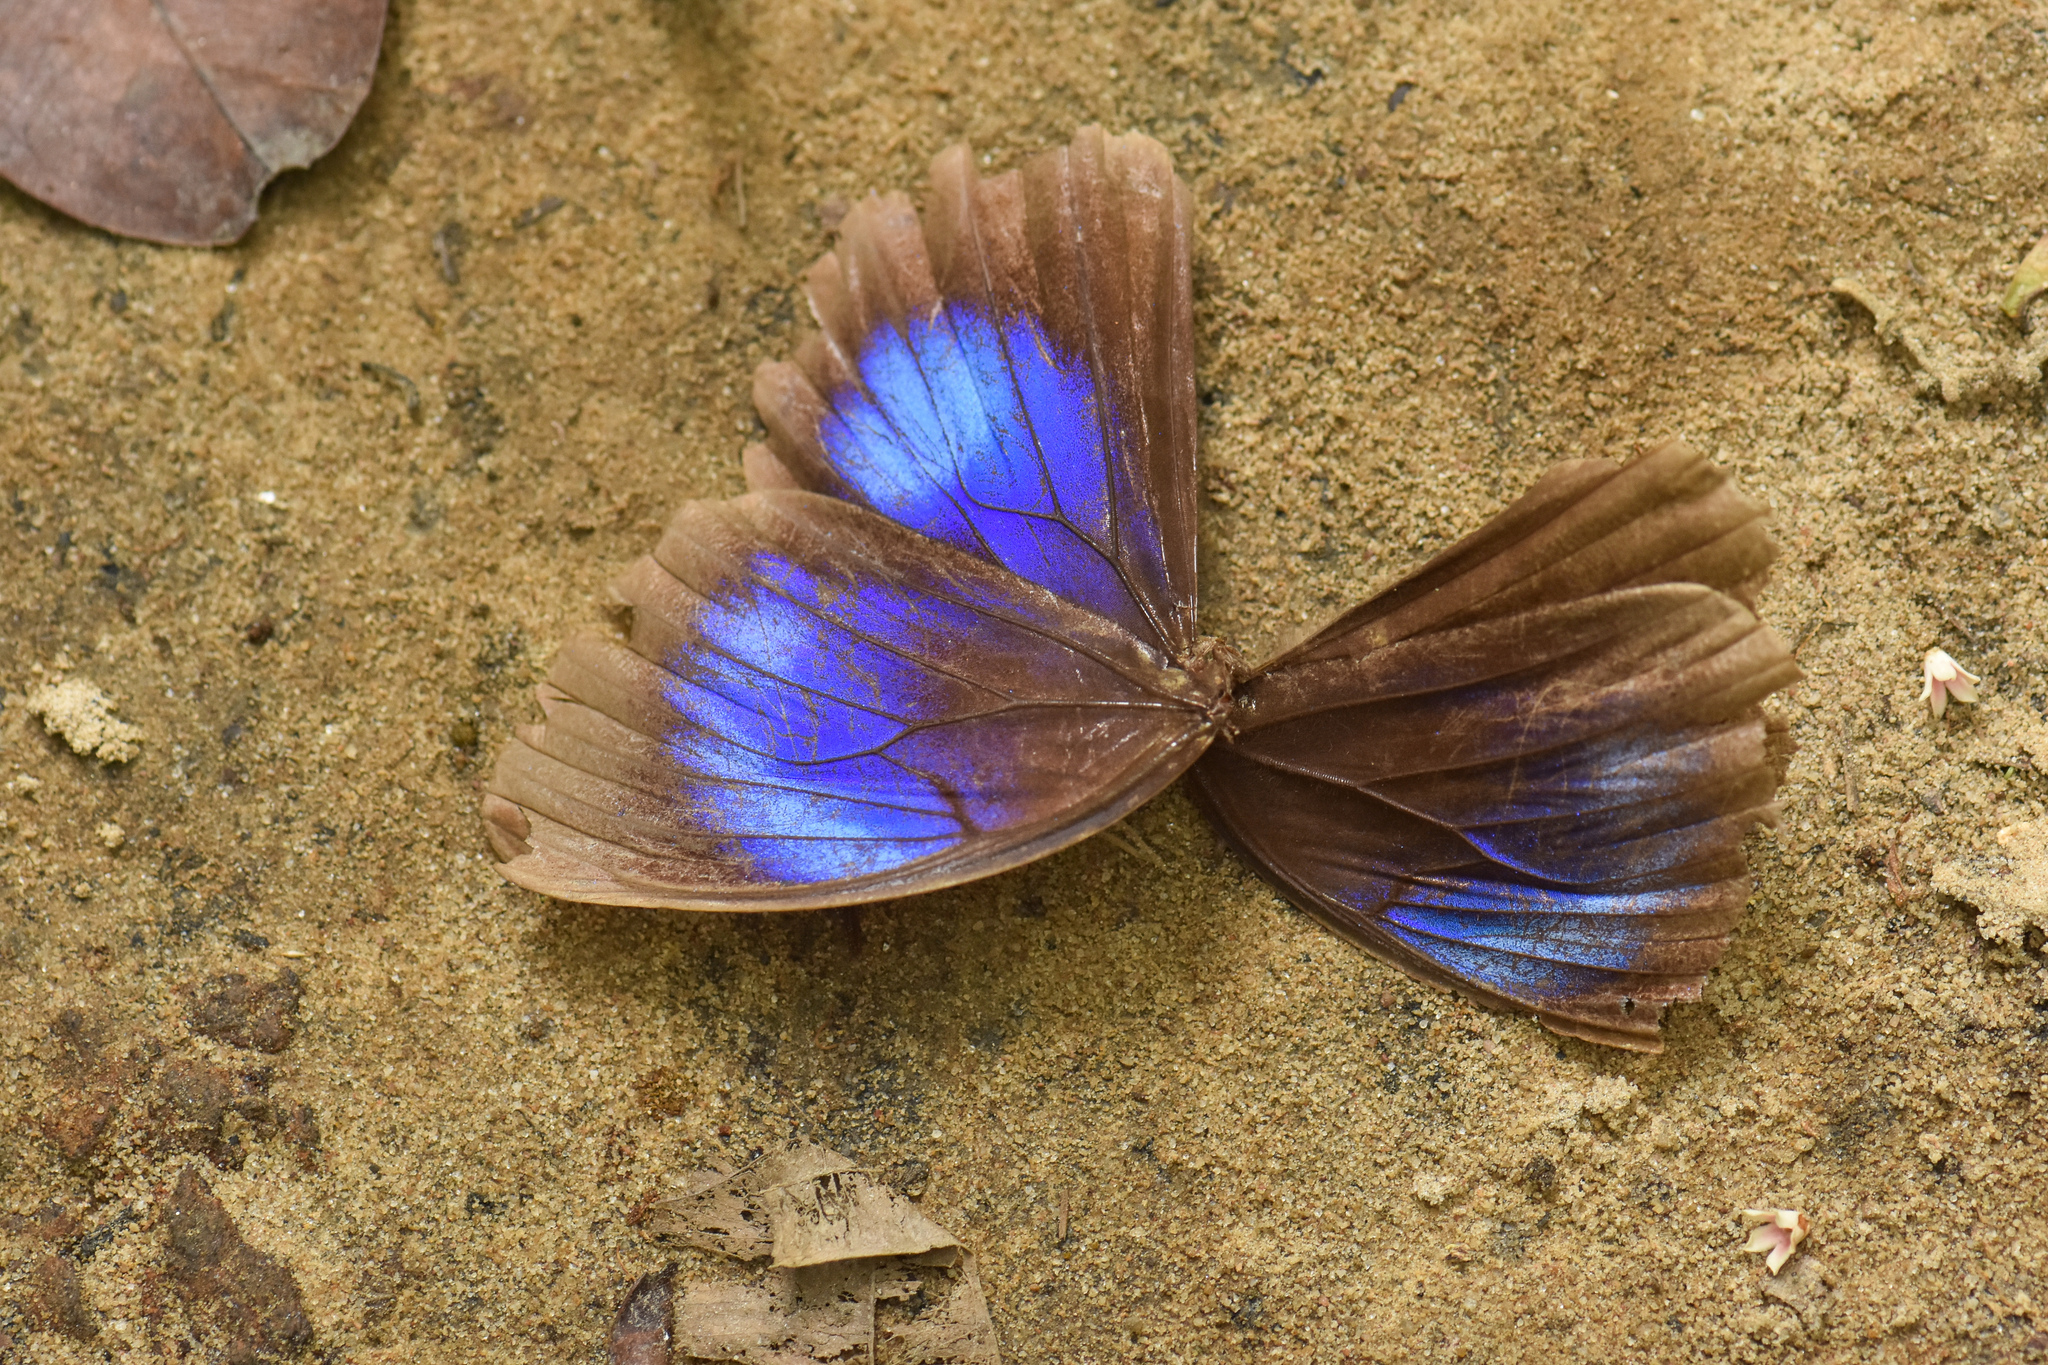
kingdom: Animalia
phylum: Arthropoda
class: Insecta
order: Lepidoptera
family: Nymphalidae
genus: Thaumantis
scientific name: Thaumantis diores
